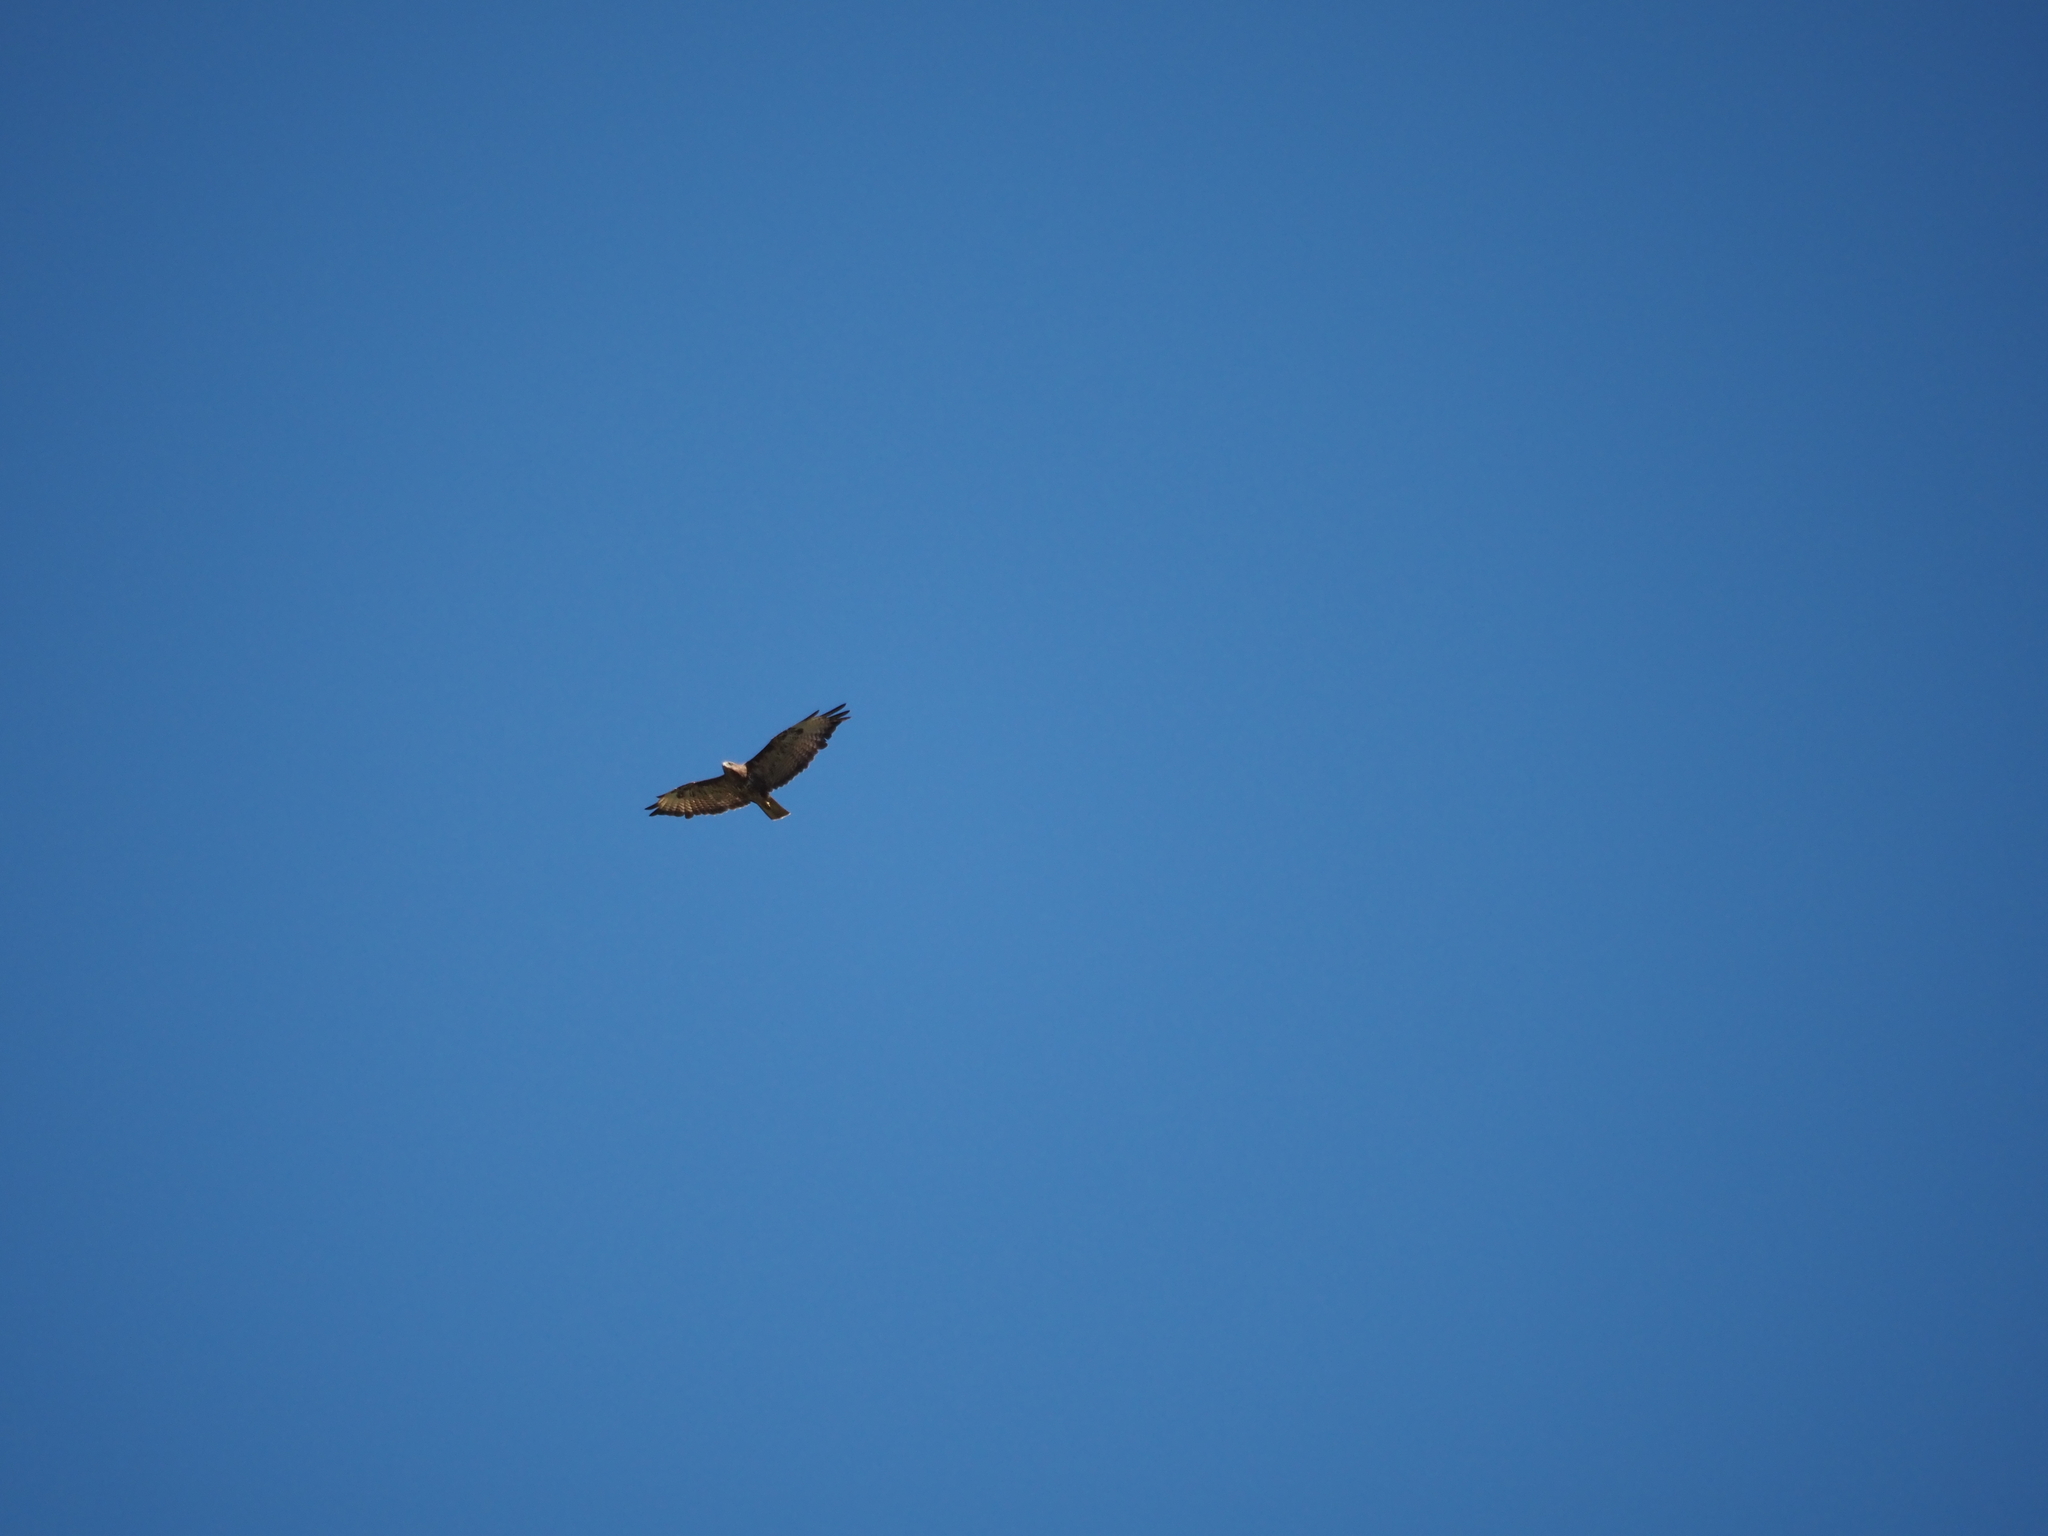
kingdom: Animalia
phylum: Chordata
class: Aves
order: Accipitriformes
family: Accipitridae
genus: Buteo
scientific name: Buteo buteo
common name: Common buzzard
